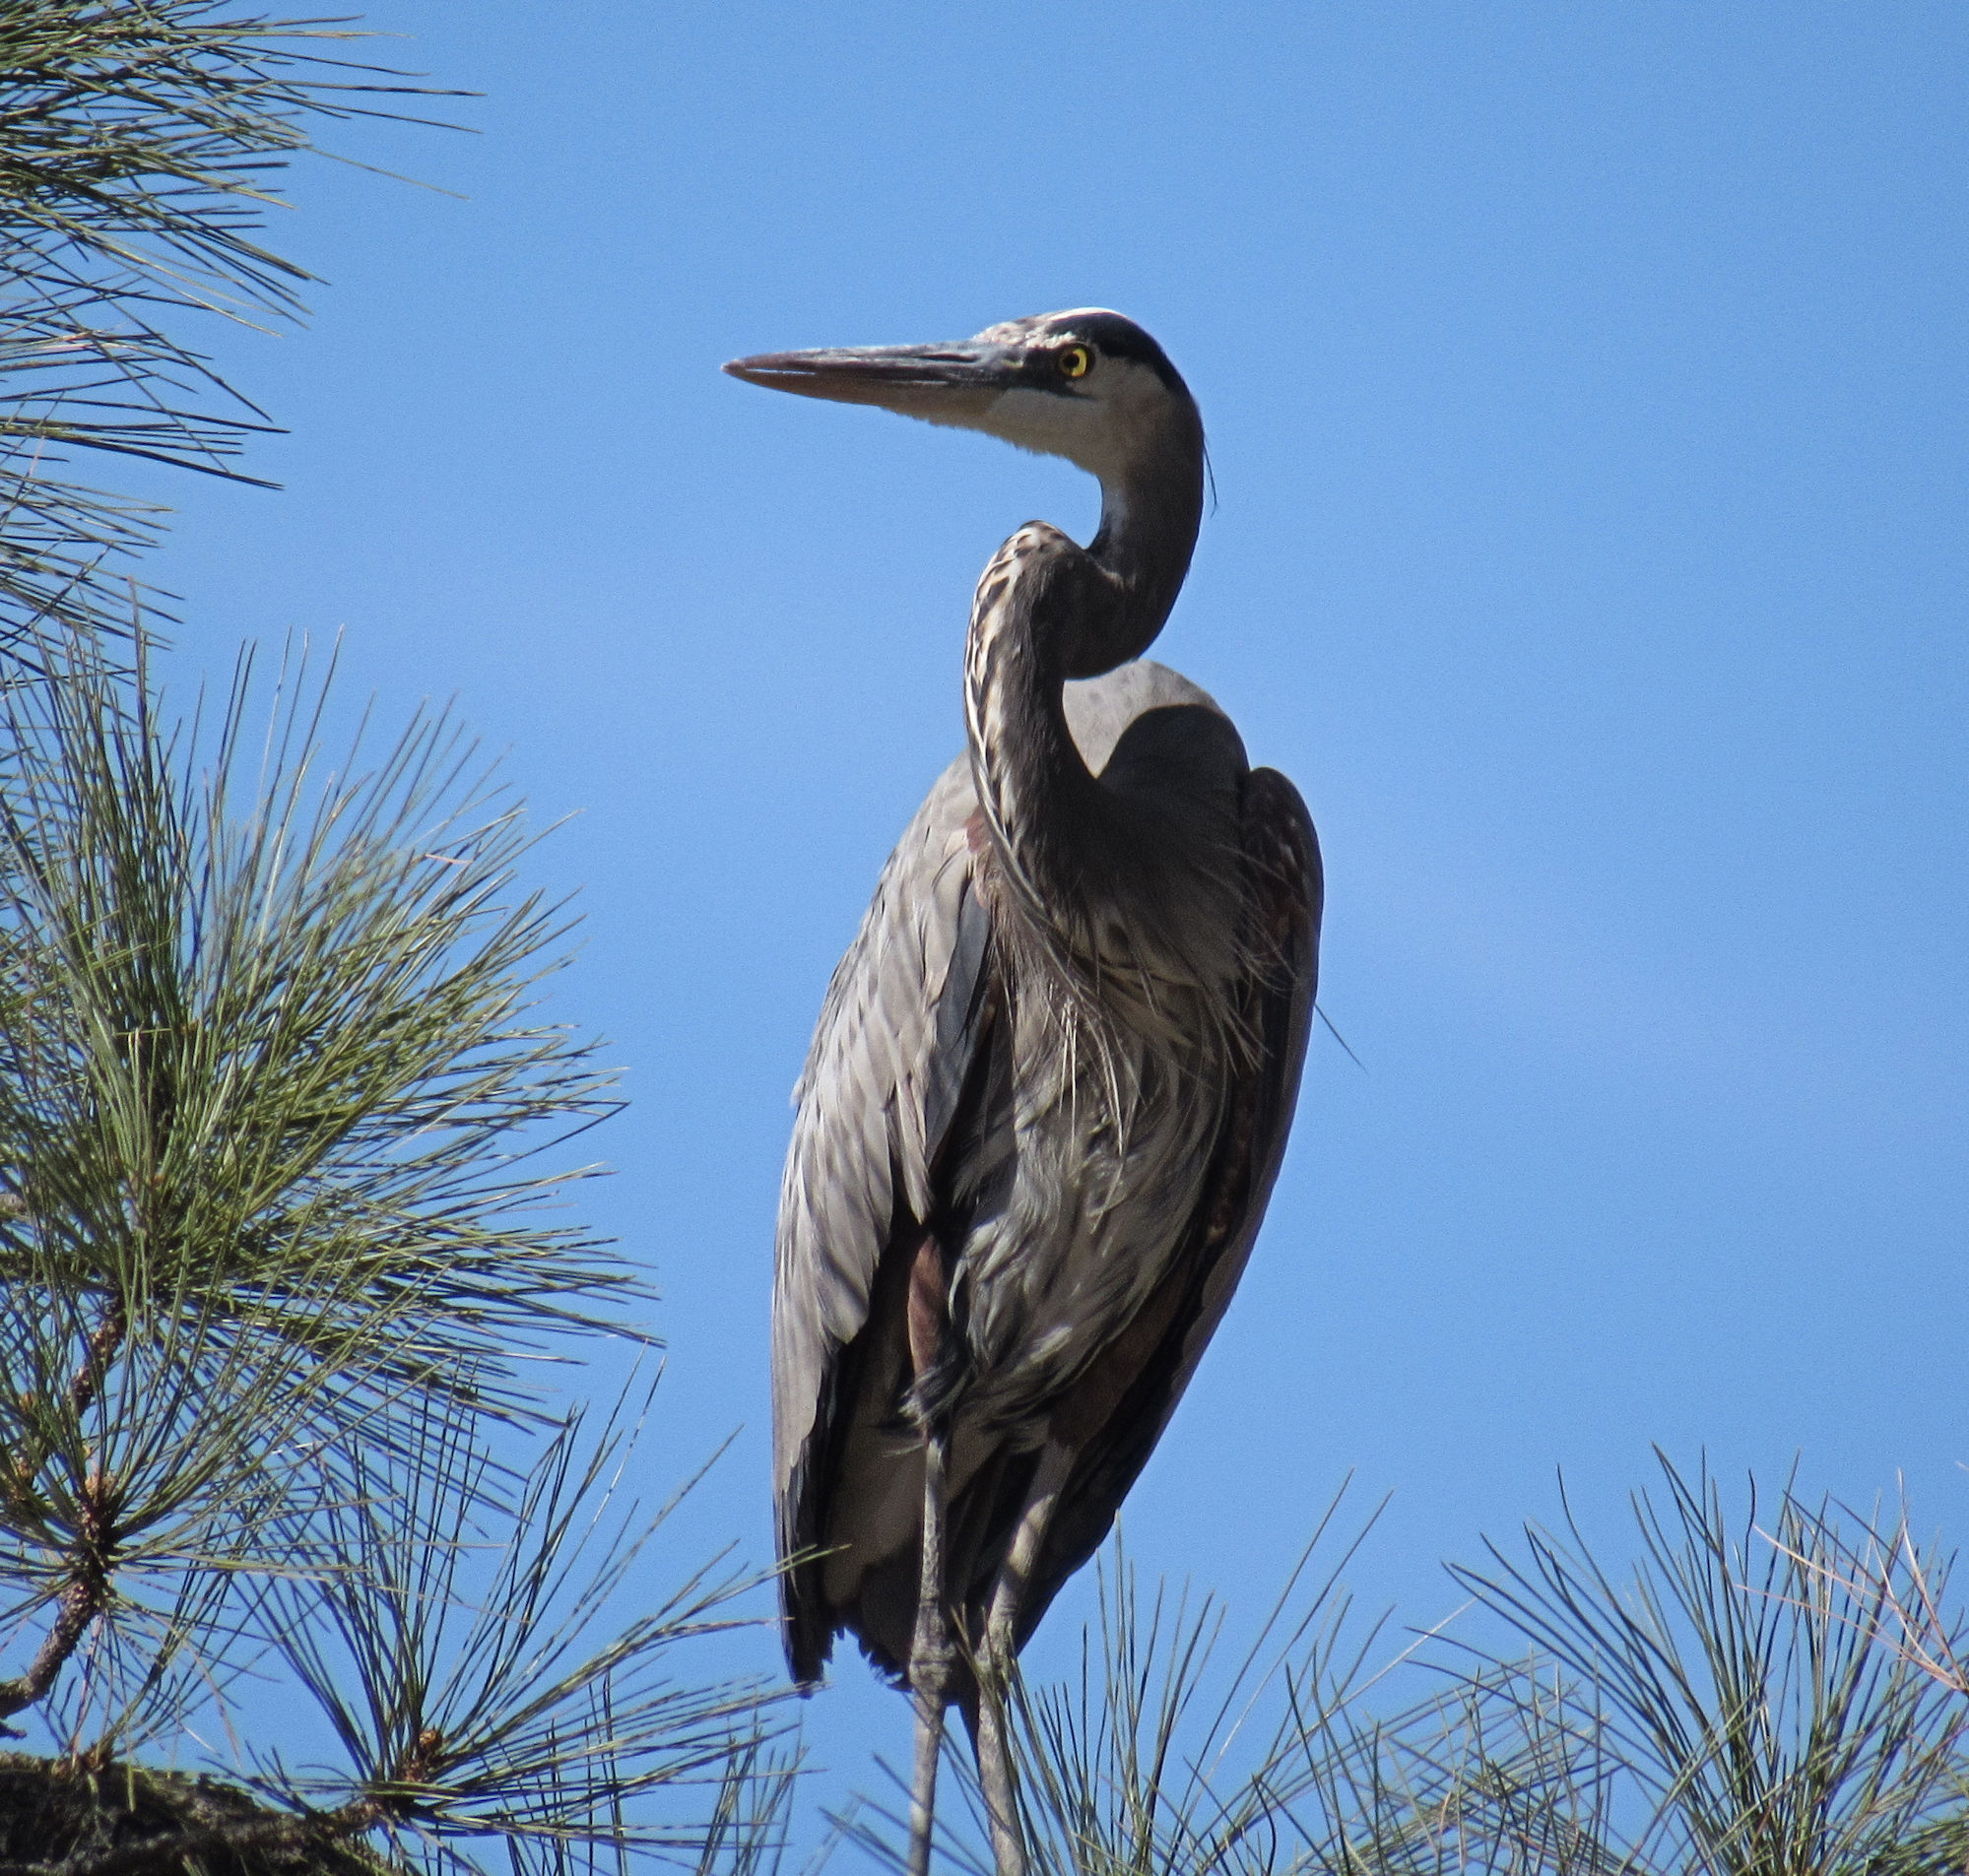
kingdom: Animalia
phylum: Chordata
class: Aves
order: Pelecaniformes
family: Ardeidae
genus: Ardea
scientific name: Ardea herodias
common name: Great blue heron
